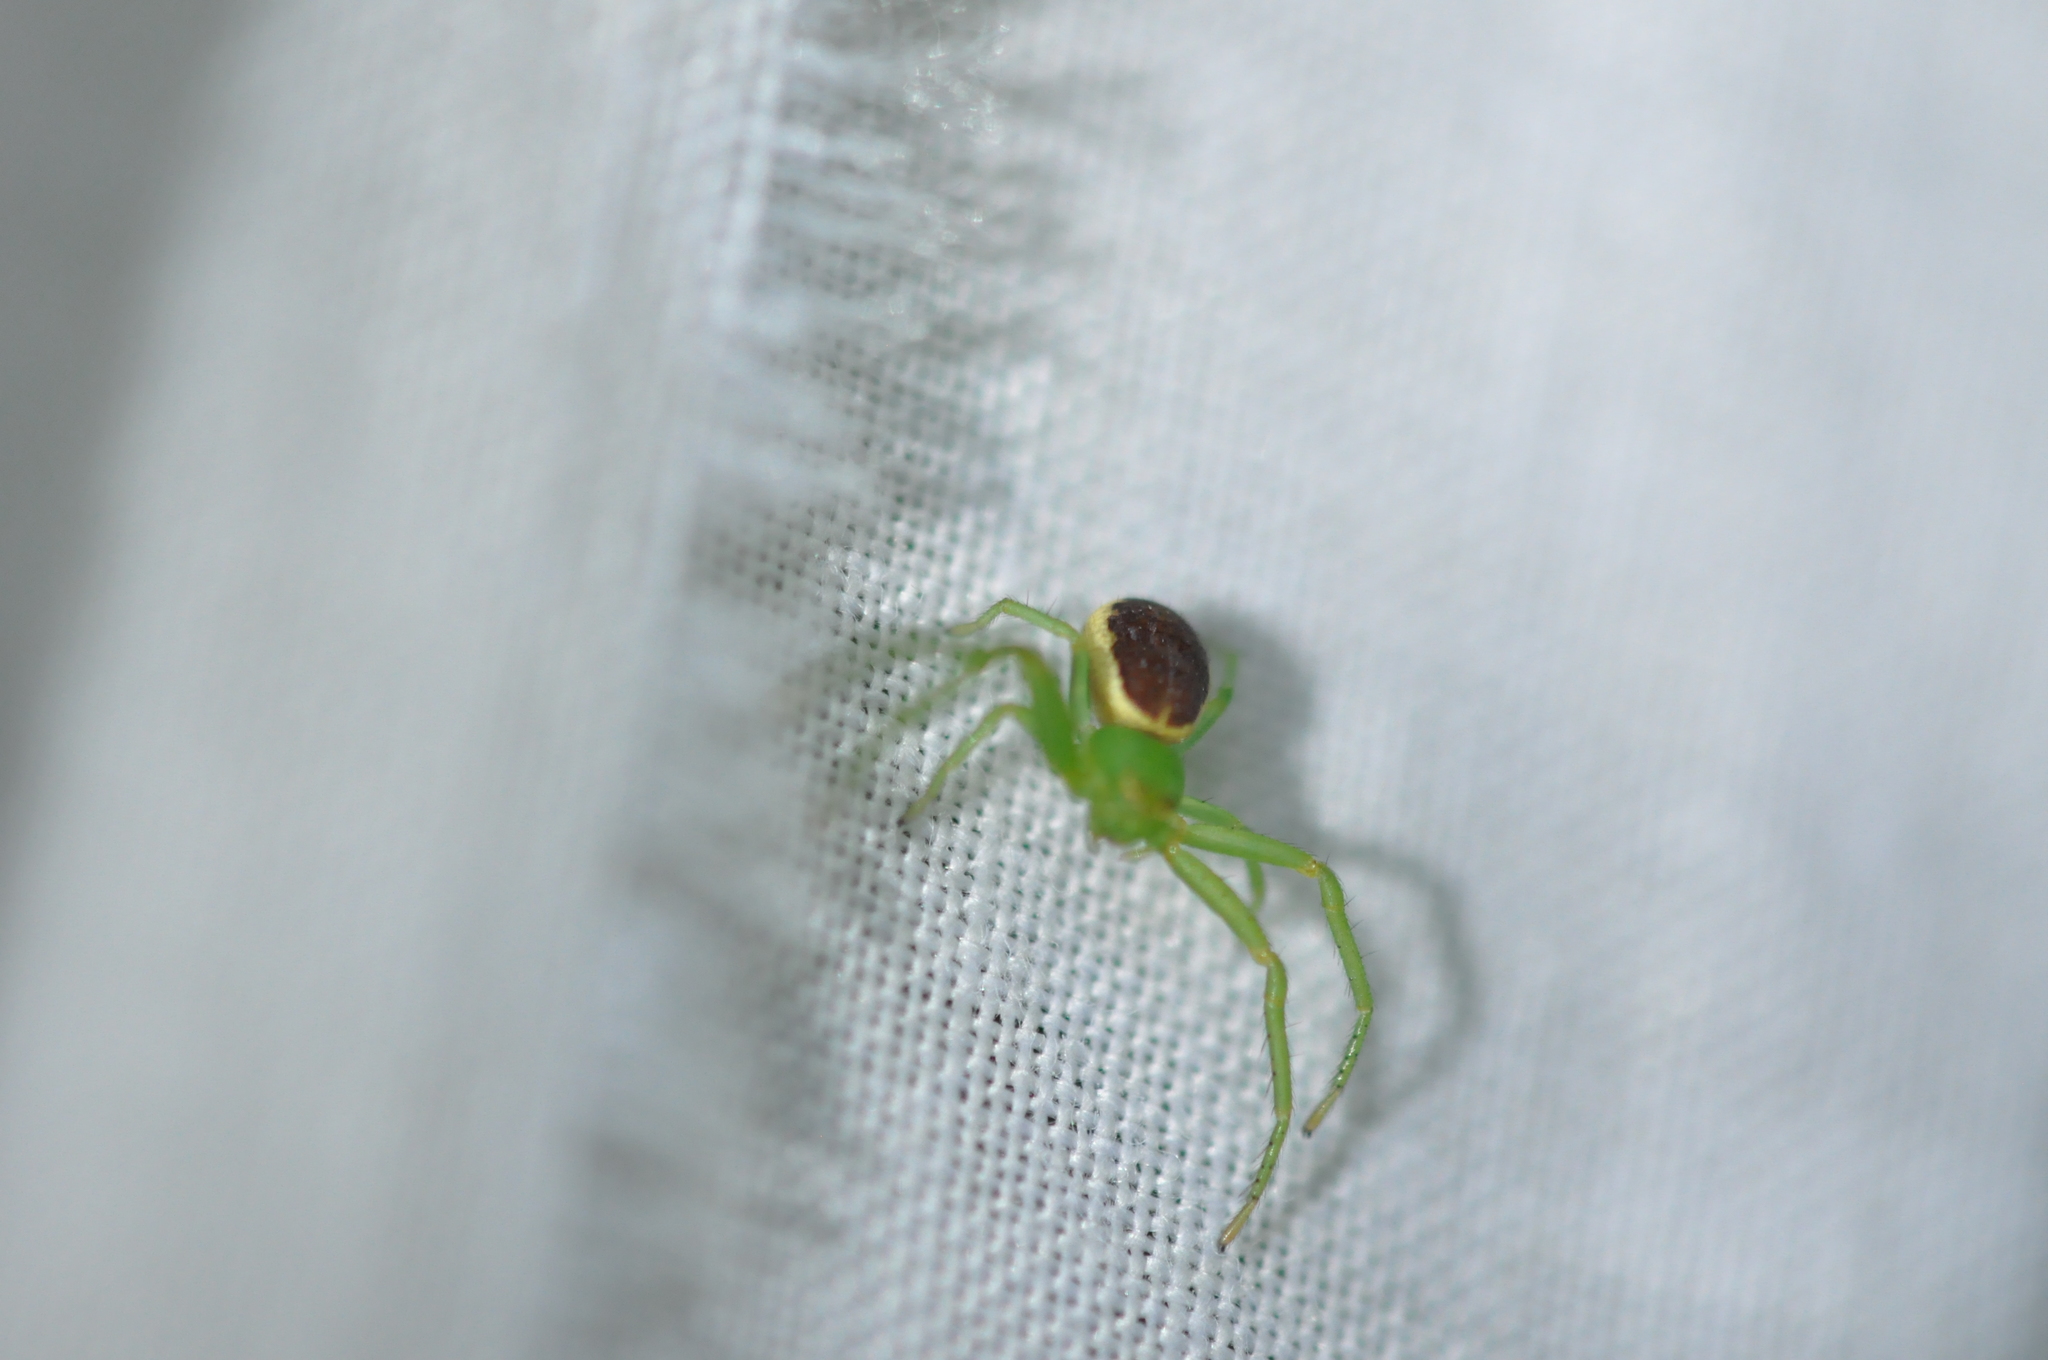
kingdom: Animalia
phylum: Arthropoda
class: Arachnida
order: Araneae
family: Thomisidae
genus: Diaea
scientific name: Diaea dorsata
